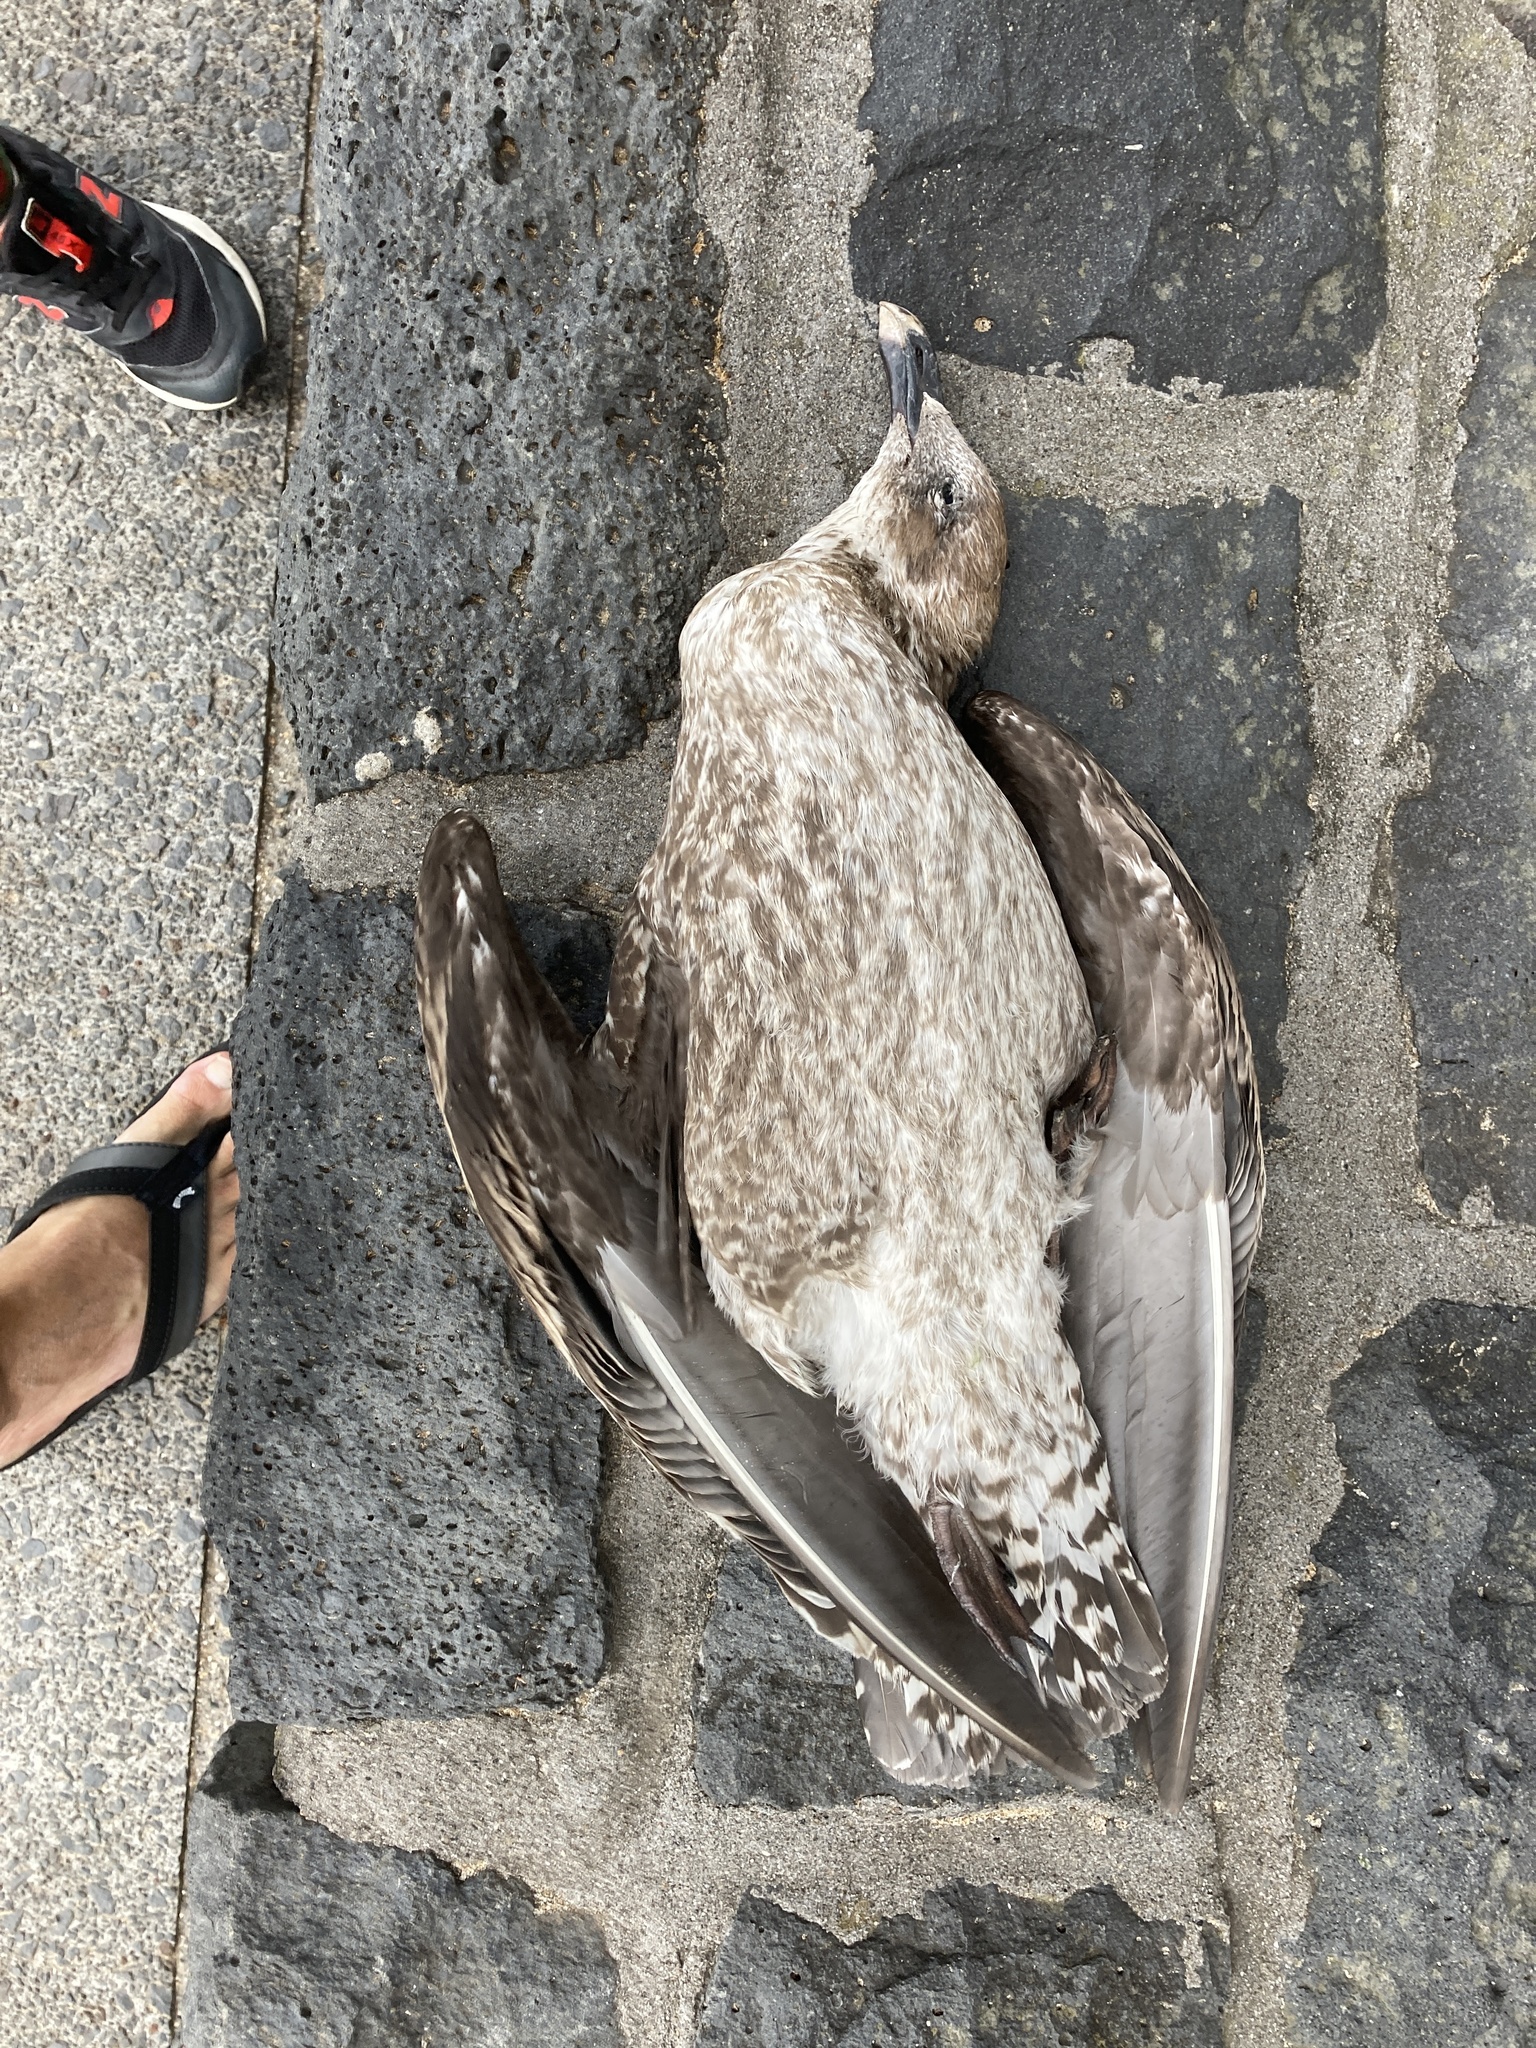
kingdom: Animalia
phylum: Chordata
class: Aves
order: Charadriiformes
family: Laridae
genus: Larus
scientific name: Larus dominicanus
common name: Kelp gull
